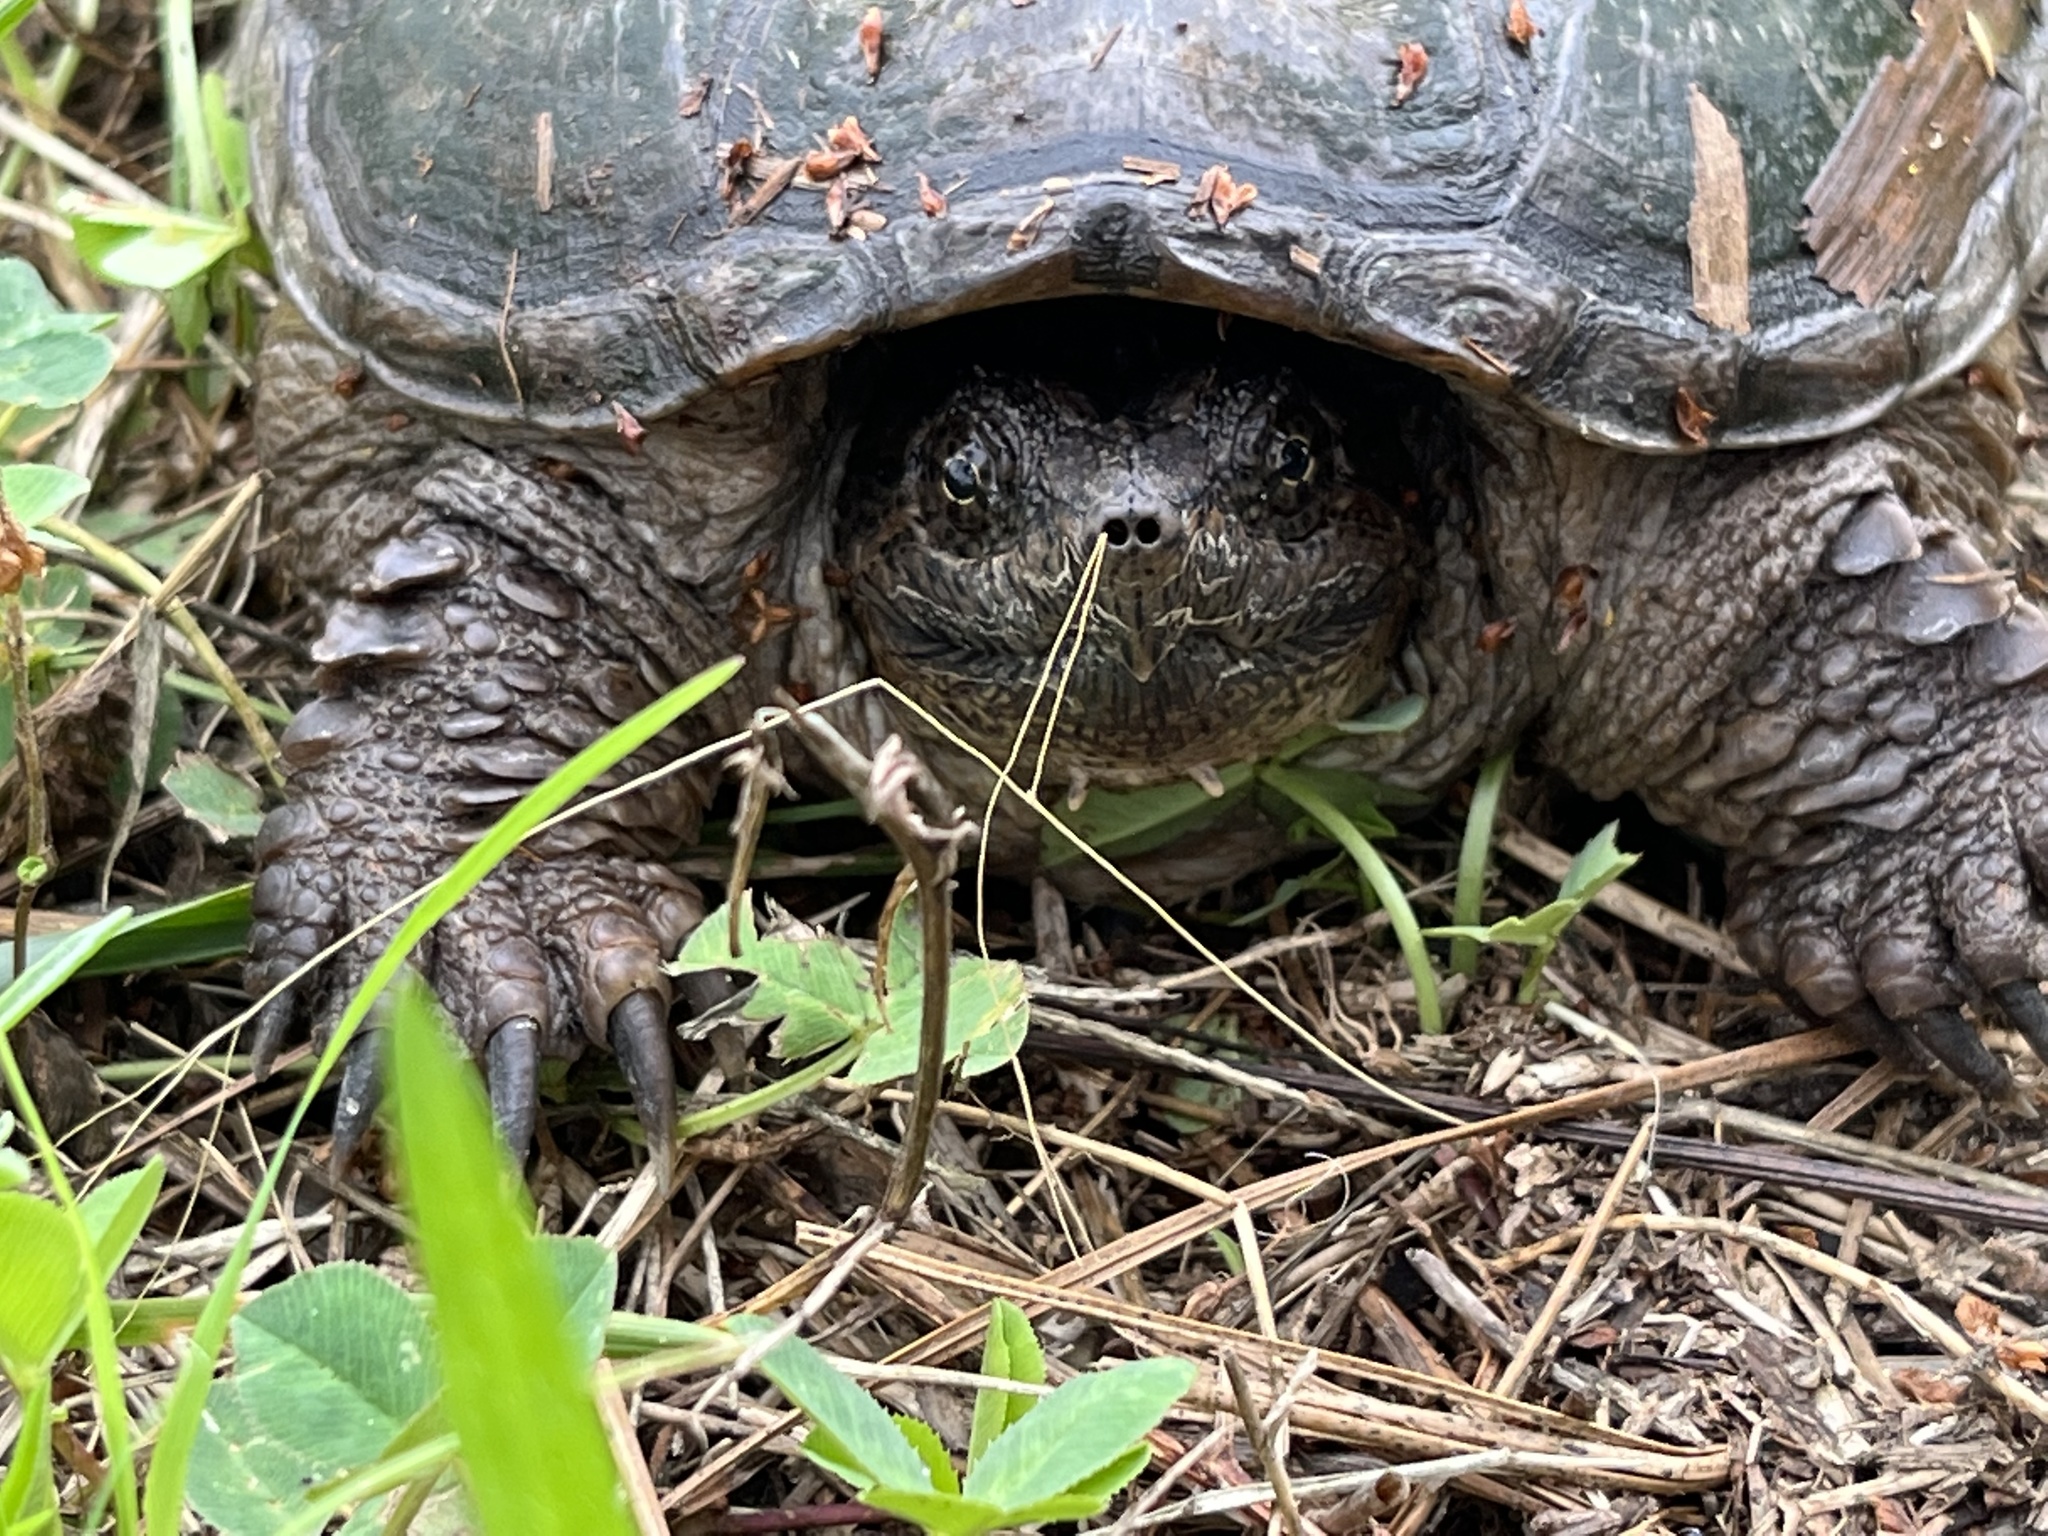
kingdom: Animalia
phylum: Chordata
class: Testudines
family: Chelydridae
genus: Chelydra
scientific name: Chelydra serpentina
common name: Common snapping turtle
